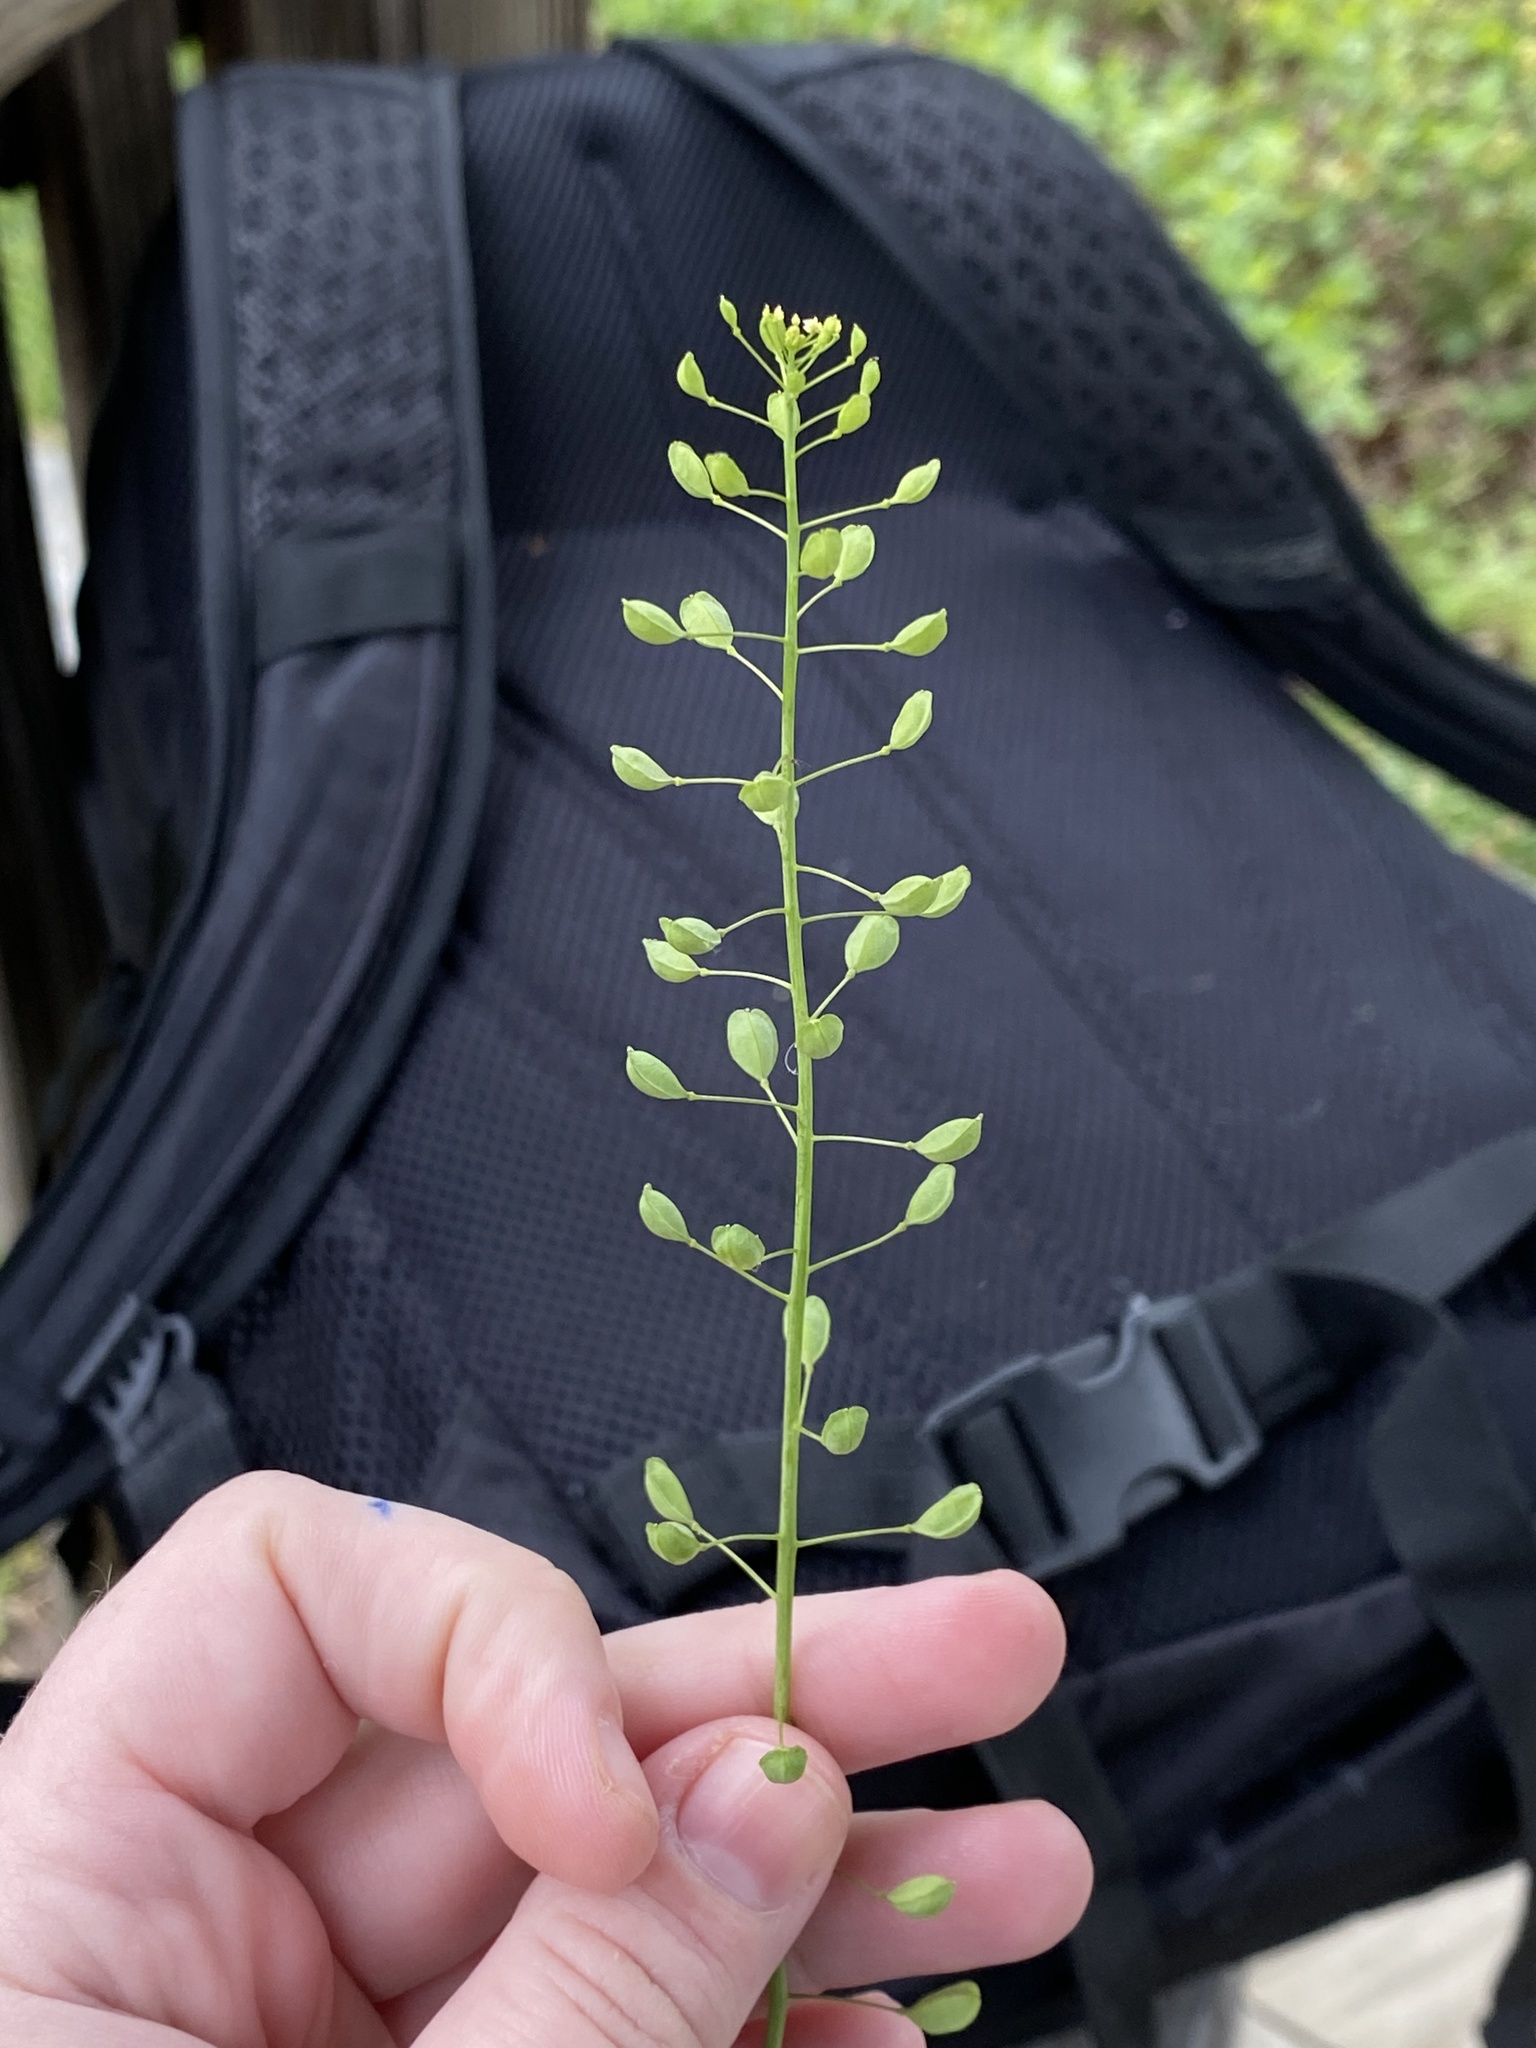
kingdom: Plantae
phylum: Tracheophyta
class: Magnoliopsida
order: Brassicales
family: Brassicaceae
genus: Mummenhoffia
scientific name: Mummenhoffia alliacea
